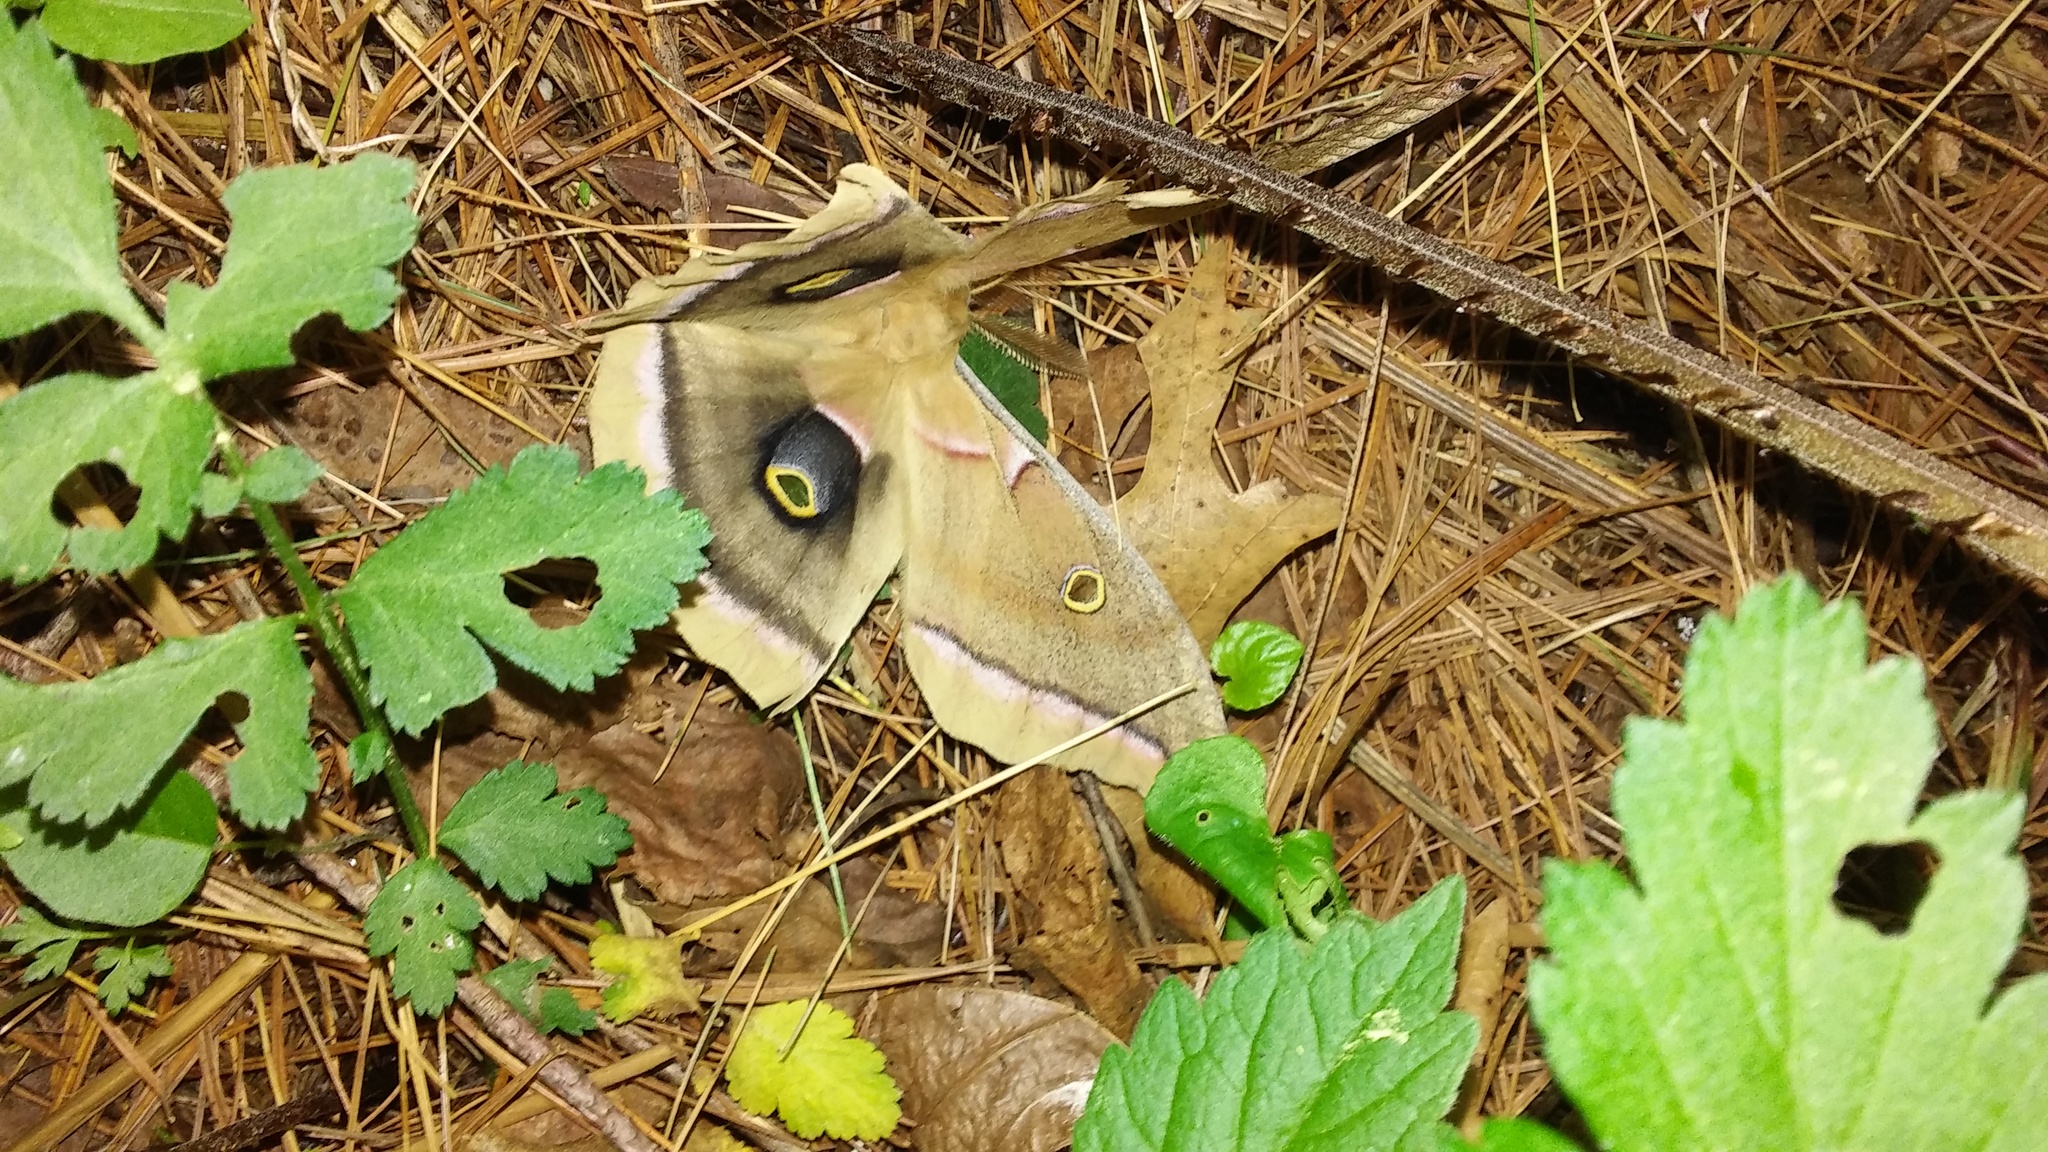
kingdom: Animalia
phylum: Arthropoda
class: Insecta
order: Lepidoptera
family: Saturniidae
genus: Antheraea
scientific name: Antheraea polyphemus
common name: Polyphemus moth
